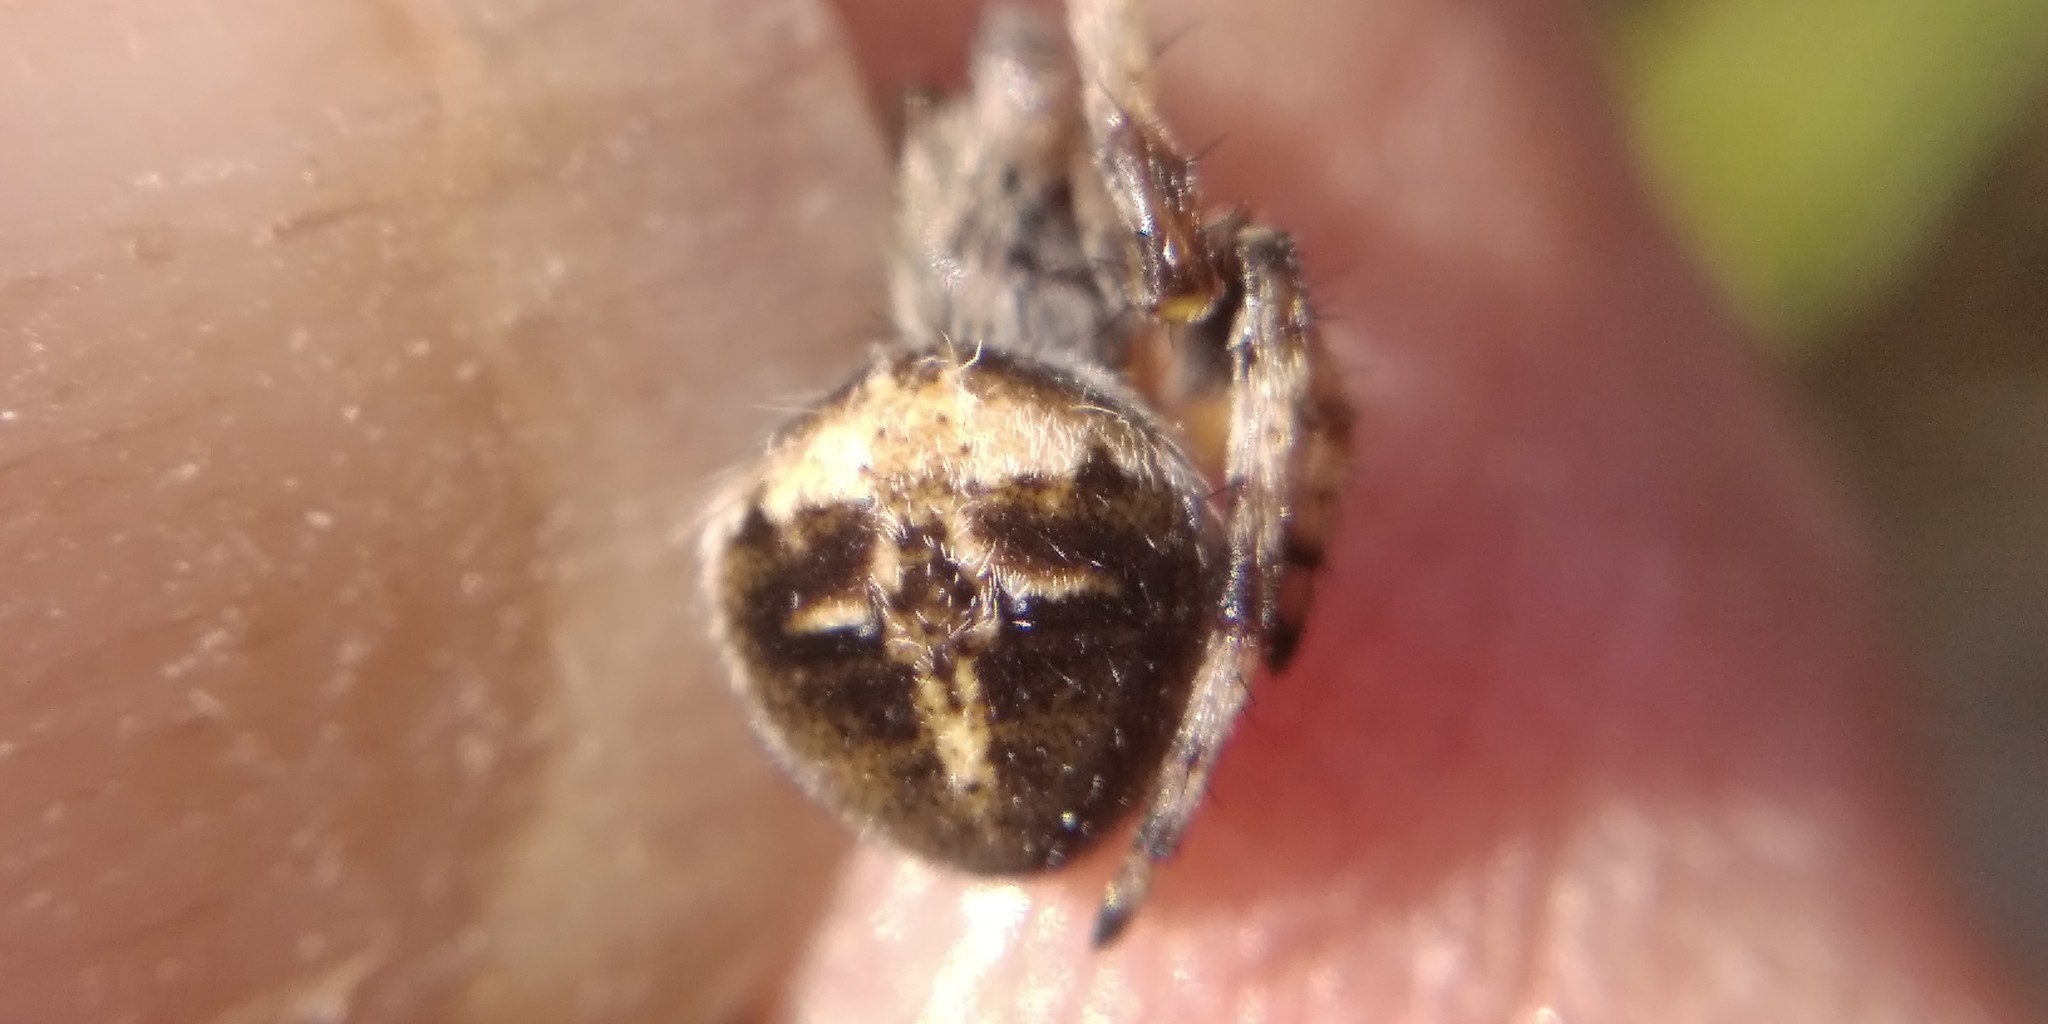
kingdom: Animalia
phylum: Arthropoda
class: Arachnida
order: Araneae
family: Araneidae
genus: Agalenatea
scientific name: Agalenatea redii
